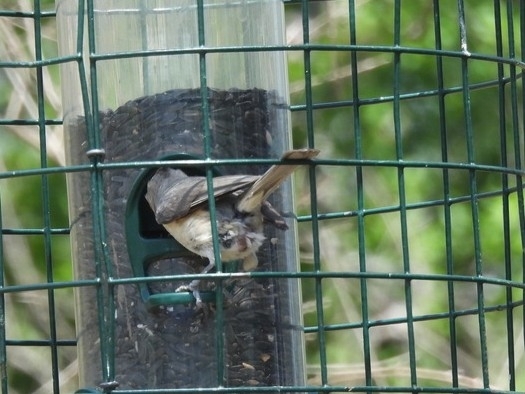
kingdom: Animalia
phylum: Chordata
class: Aves
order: Passeriformes
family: Paridae
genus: Baeolophus
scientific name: Baeolophus atricristatus
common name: Black-crested titmouse
